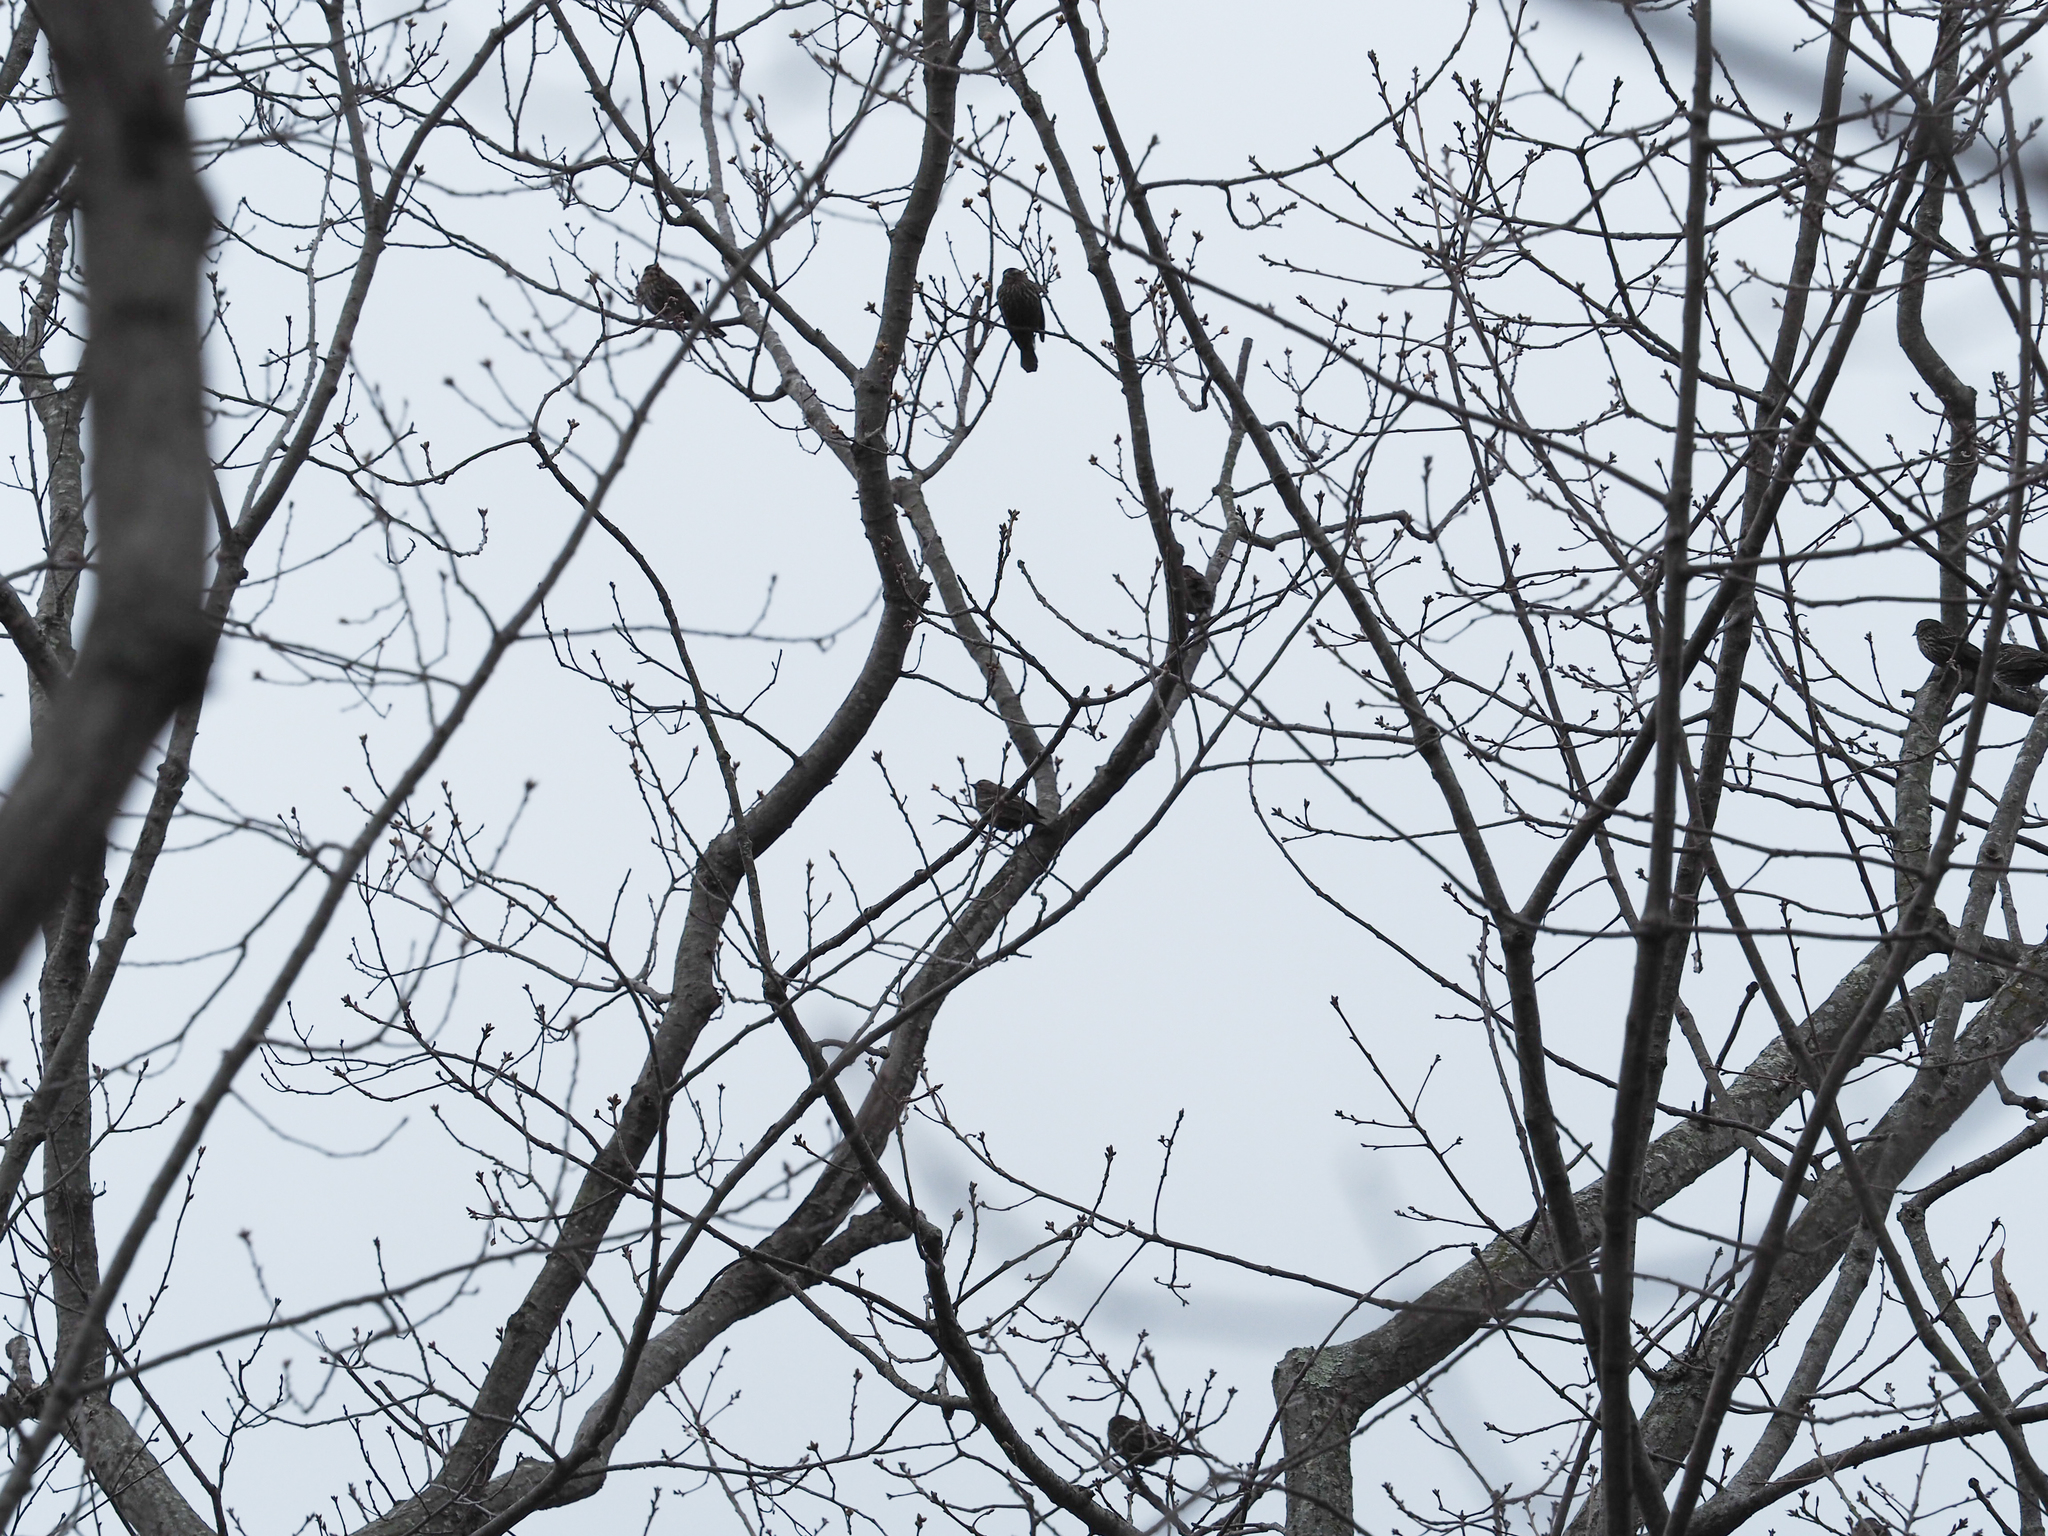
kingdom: Animalia
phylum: Chordata
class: Aves
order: Passeriformes
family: Icteridae
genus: Agelaius
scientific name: Agelaius phoeniceus
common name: Red-winged blackbird
